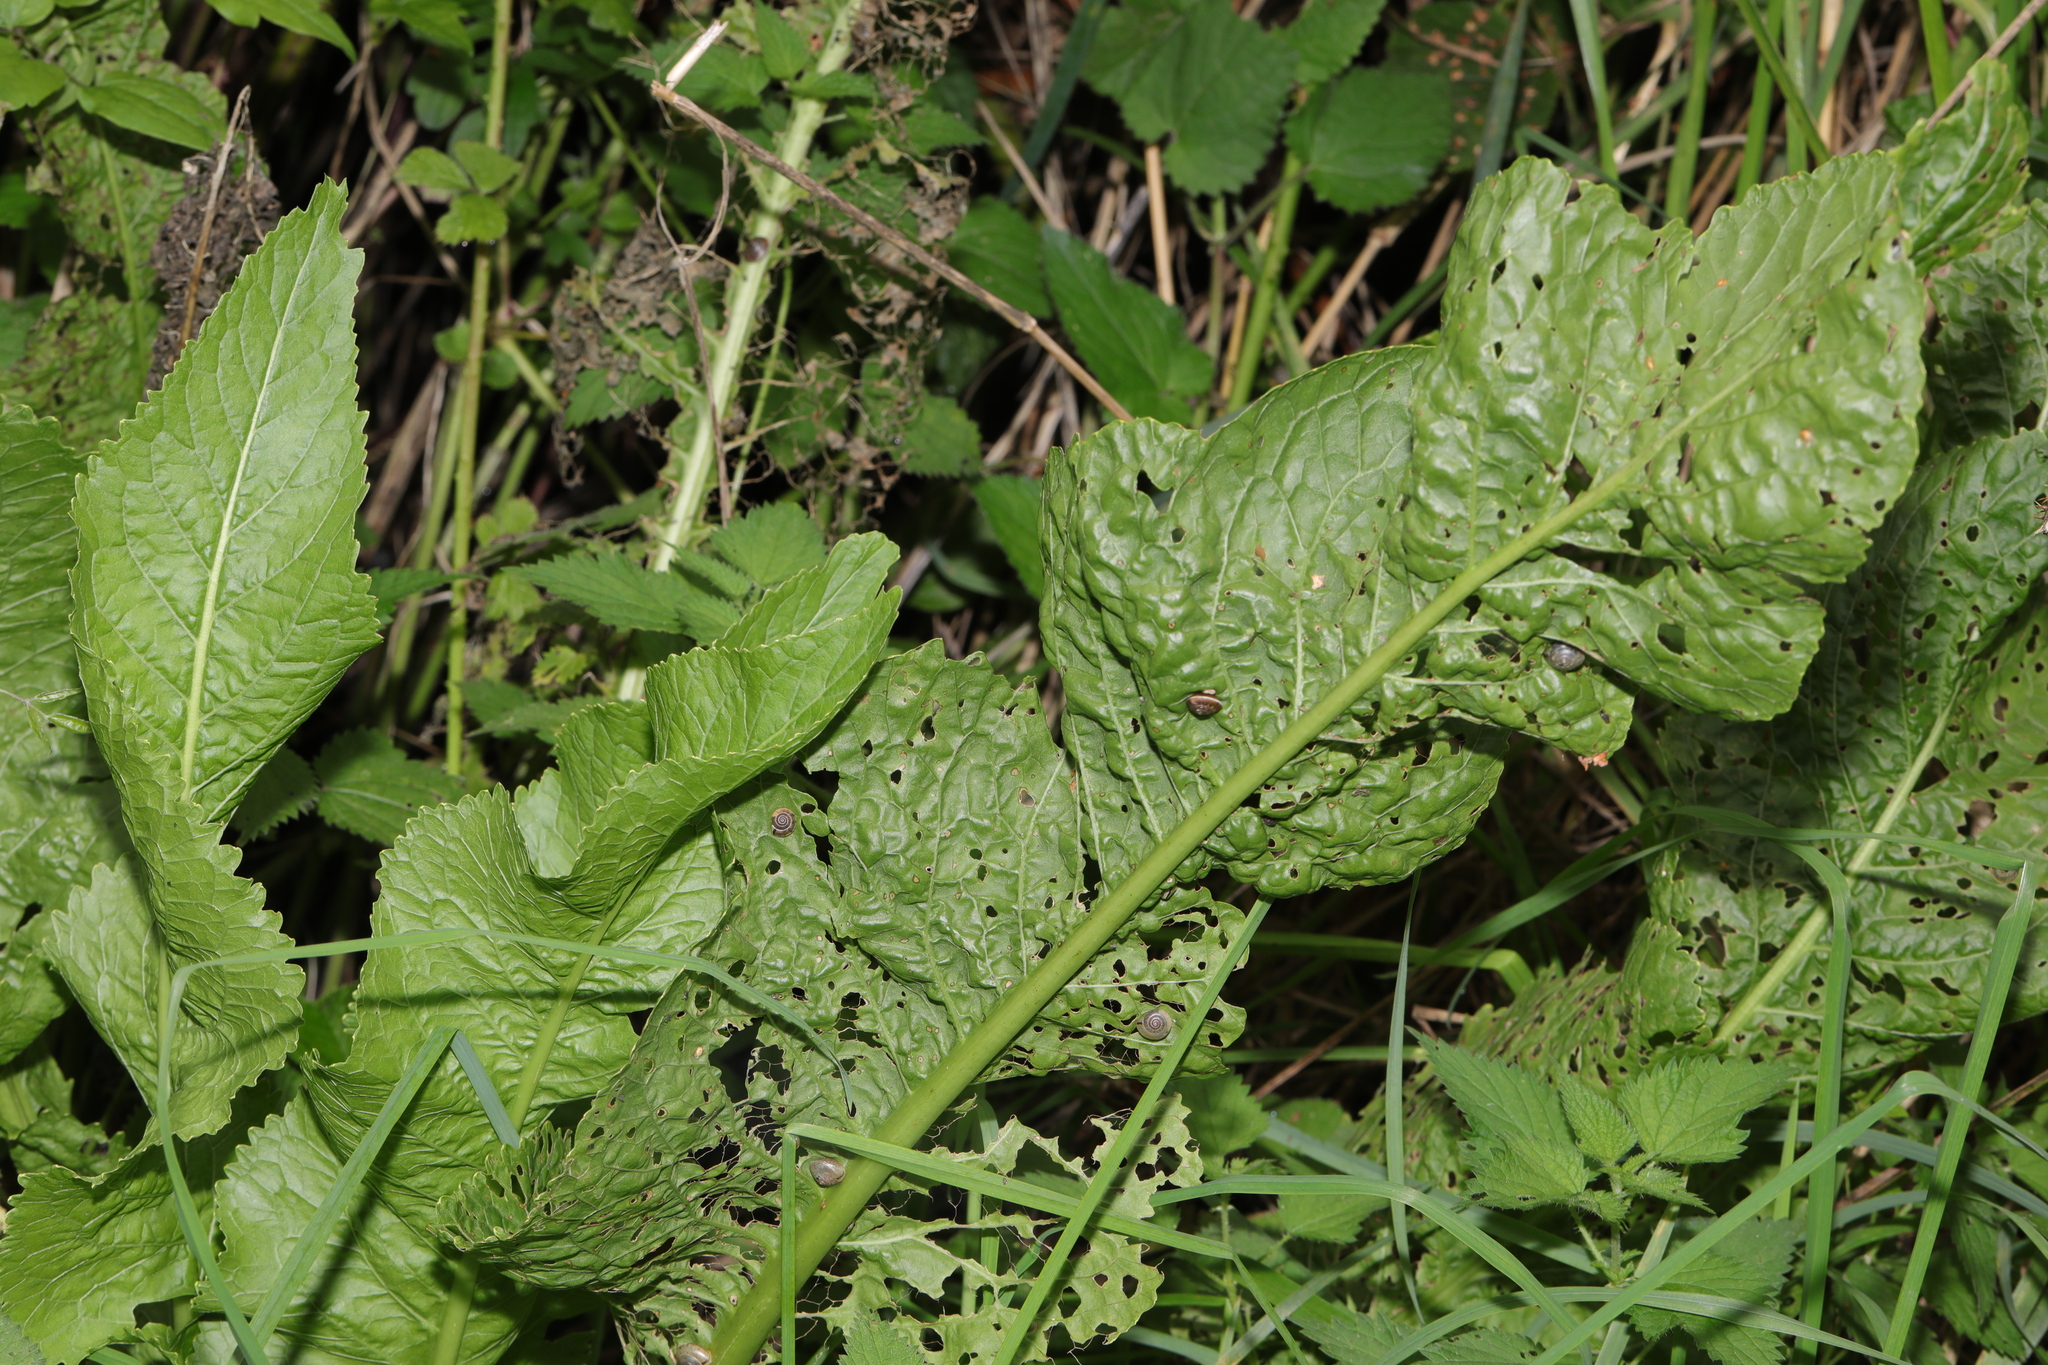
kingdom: Plantae
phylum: Tracheophyta
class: Magnoliopsida
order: Brassicales
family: Brassicaceae
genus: Armoracia
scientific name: Armoracia rusticana
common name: Horseradish
